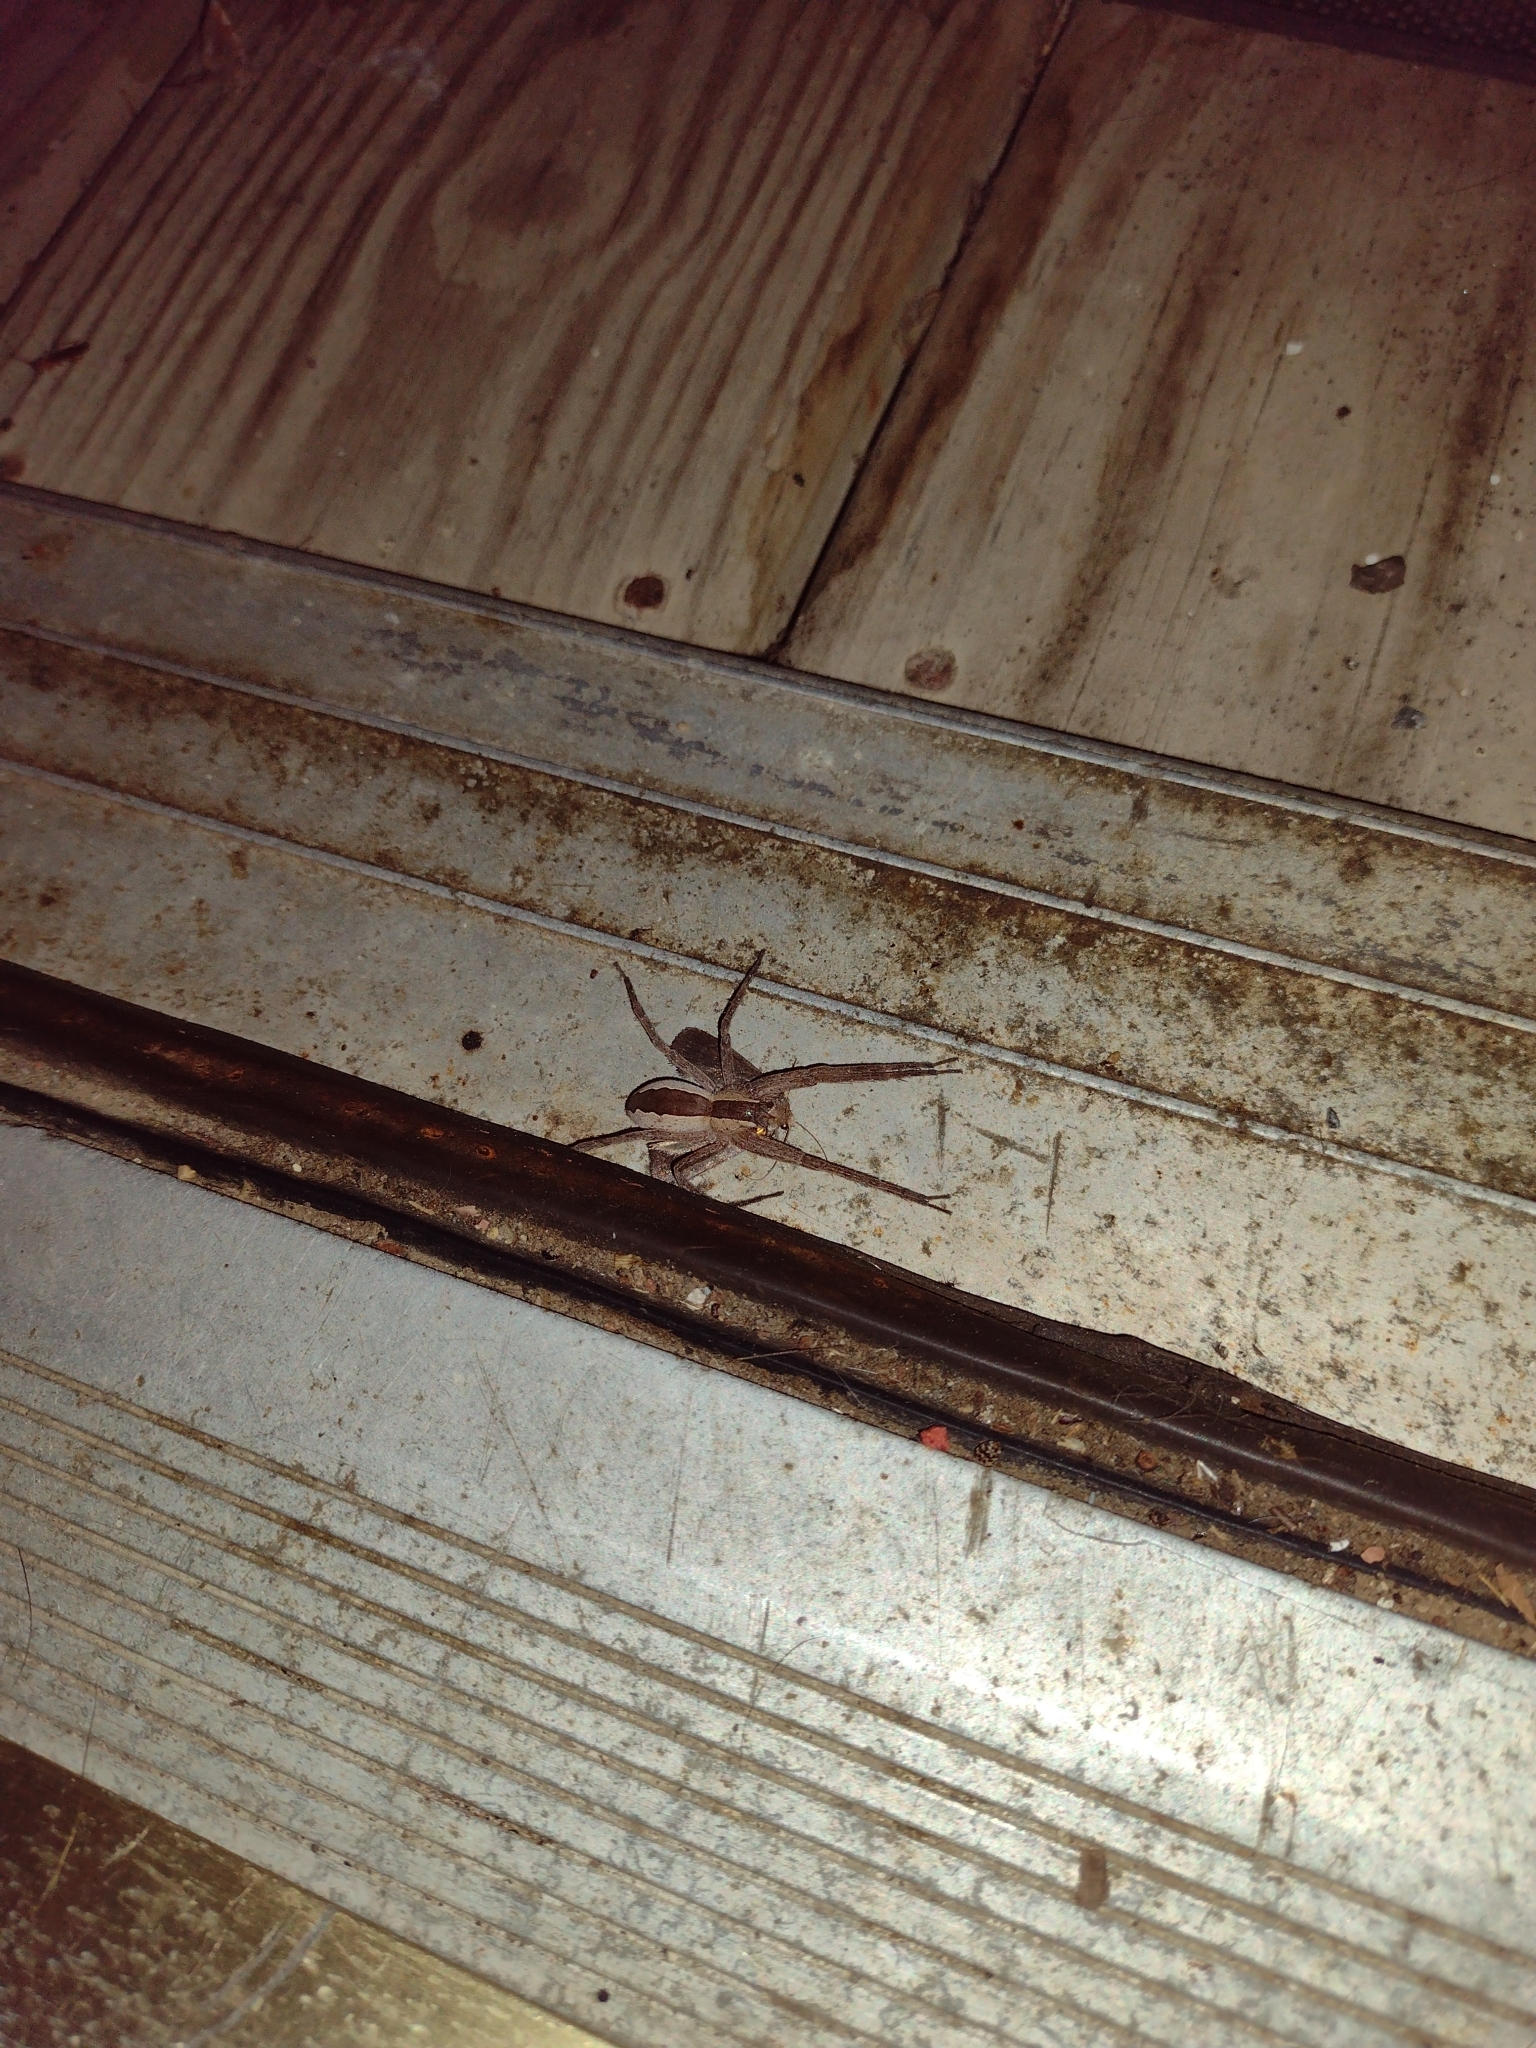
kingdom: Animalia
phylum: Arthropoda
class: Arachnida
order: Araneae
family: Pisauridae
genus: Pisaurina
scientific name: Pisaurina mira
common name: American nursery web spider
